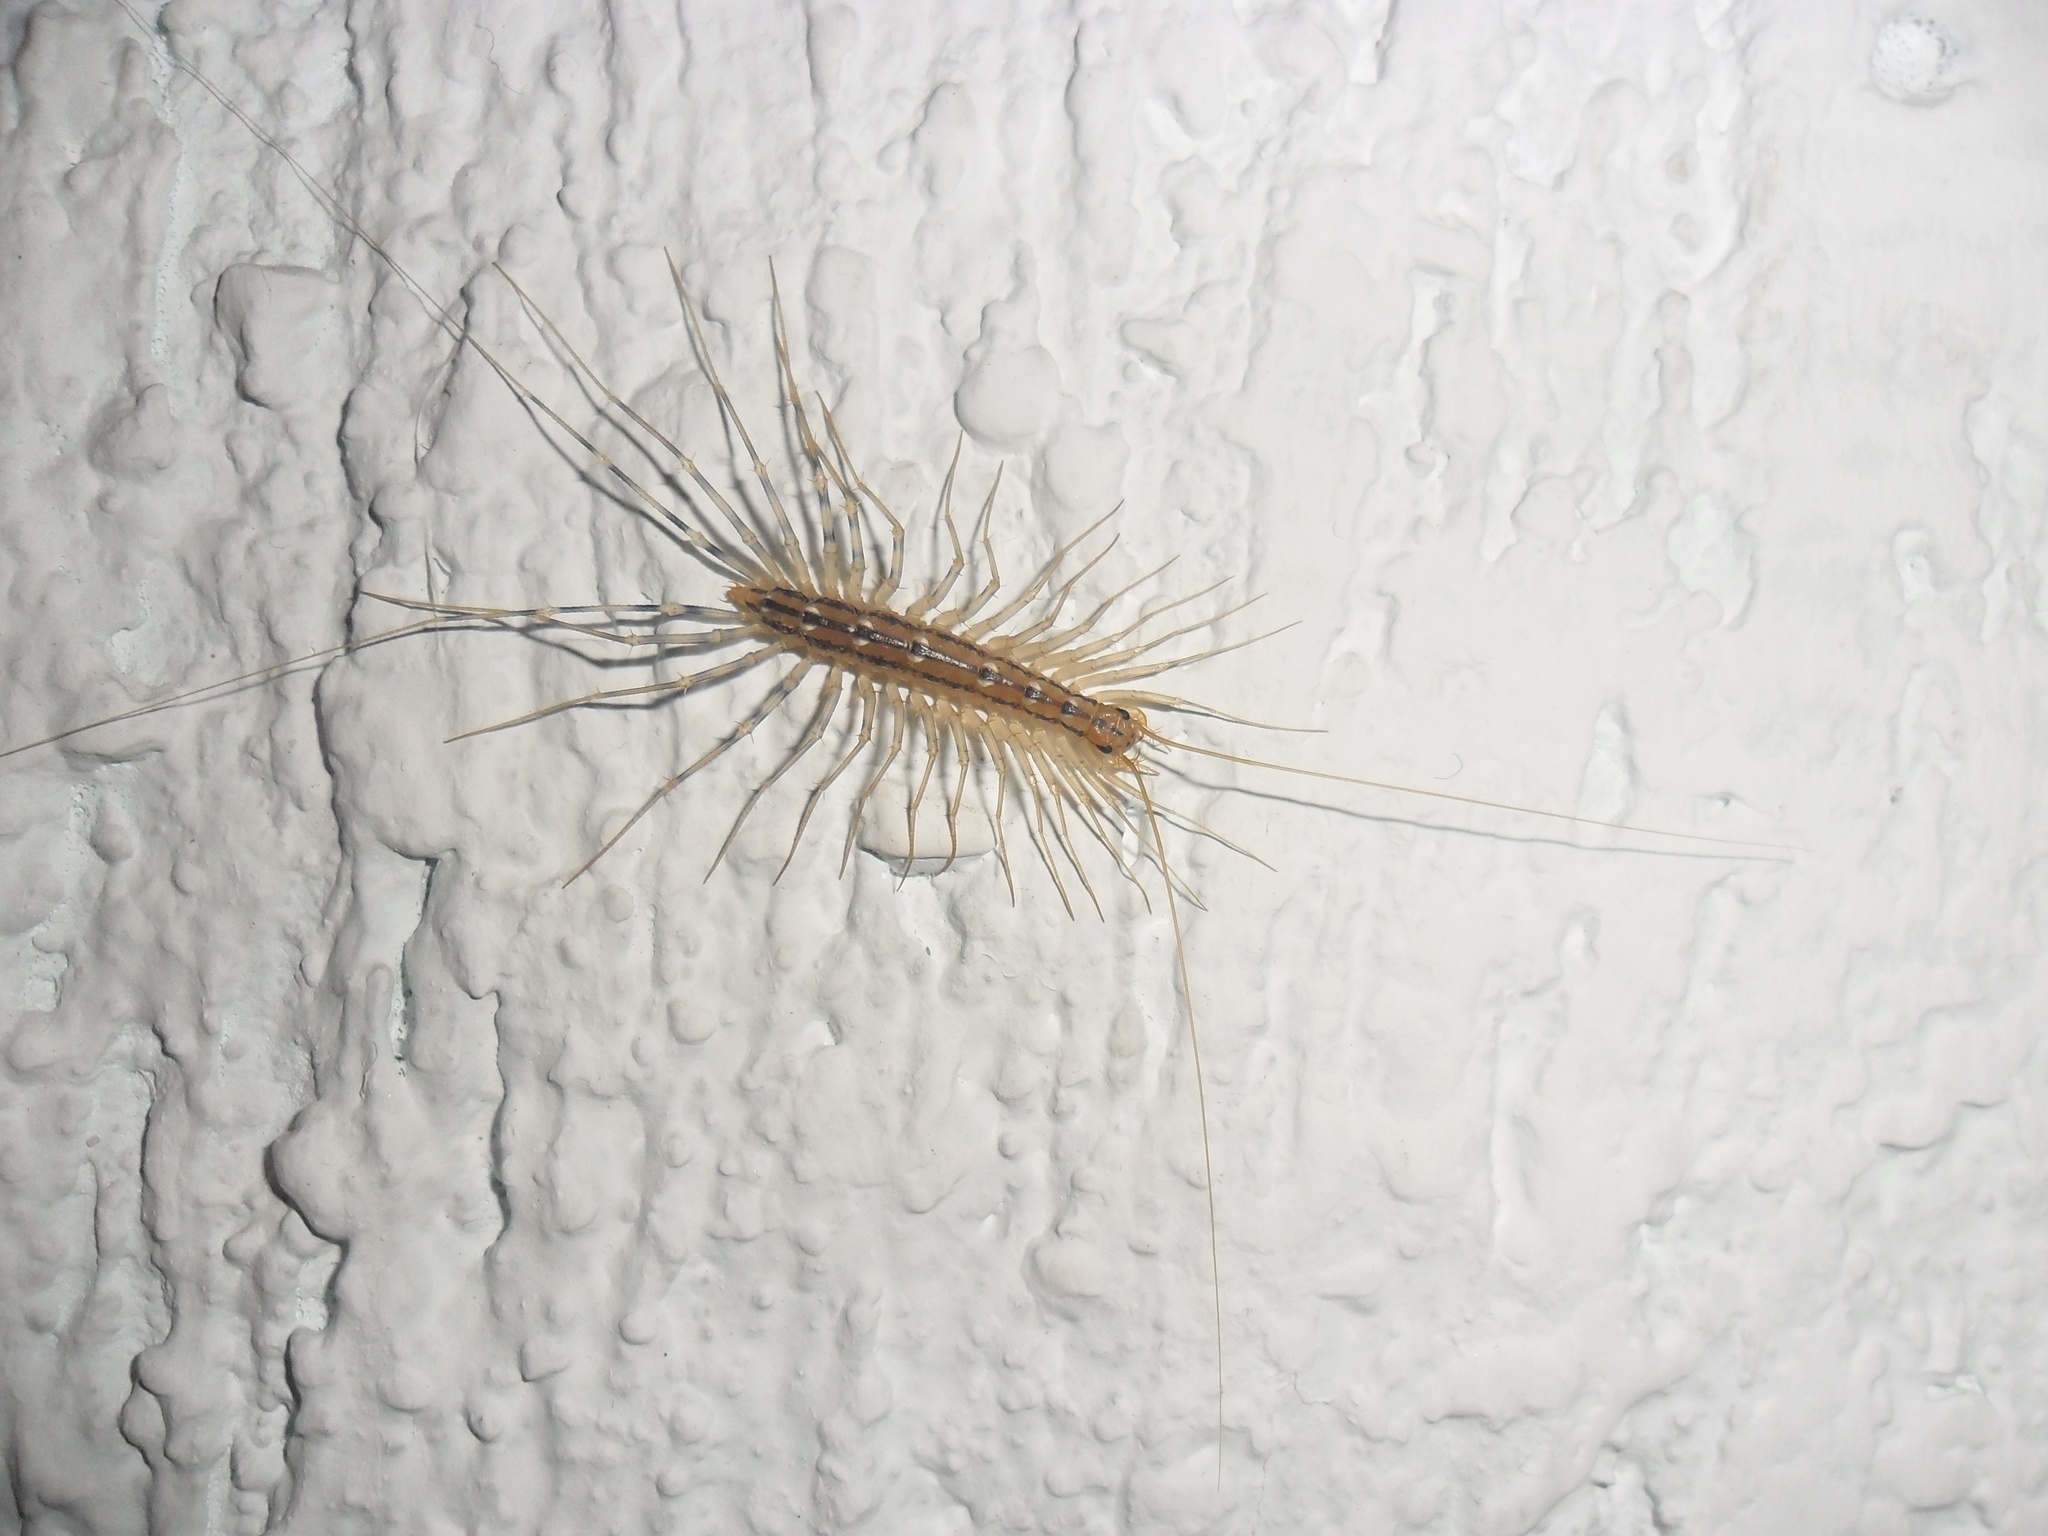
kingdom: Animalia
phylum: Arthropoda
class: Chilopoda
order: Scutigeromorpha
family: Scutigeridae
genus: Scutigera
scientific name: Scutigera coleoptrata
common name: House centipede
